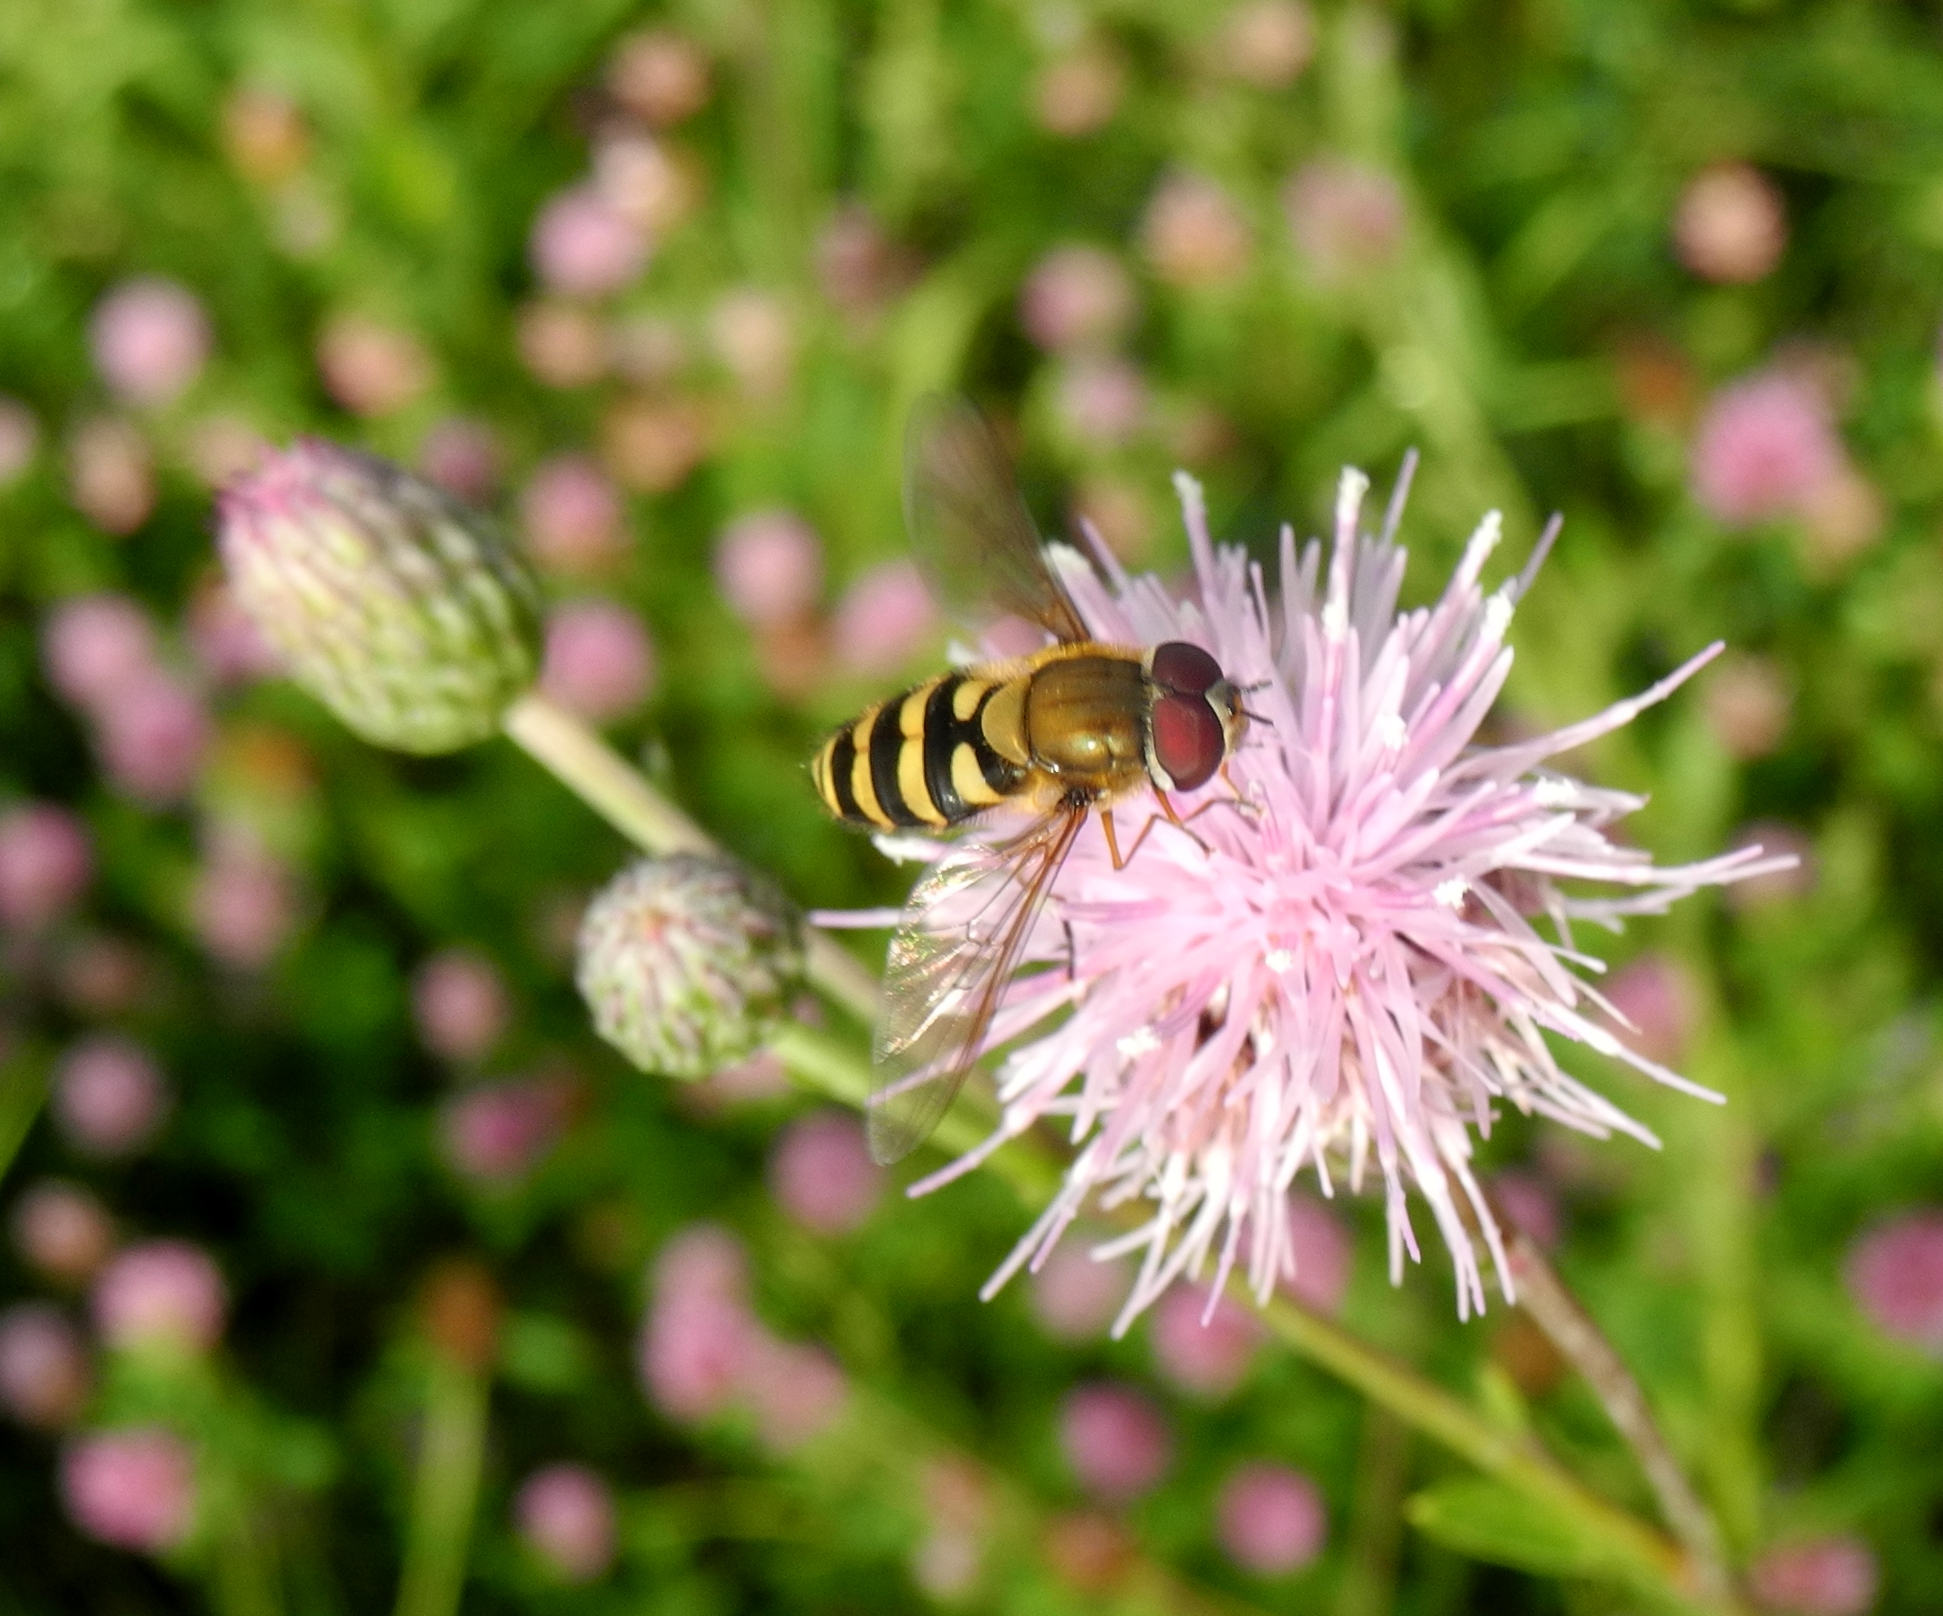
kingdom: Animalia
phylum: Arthropoda
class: Insecta
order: Diptera
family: Syrphidae
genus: Syrphus
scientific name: Syrphus
